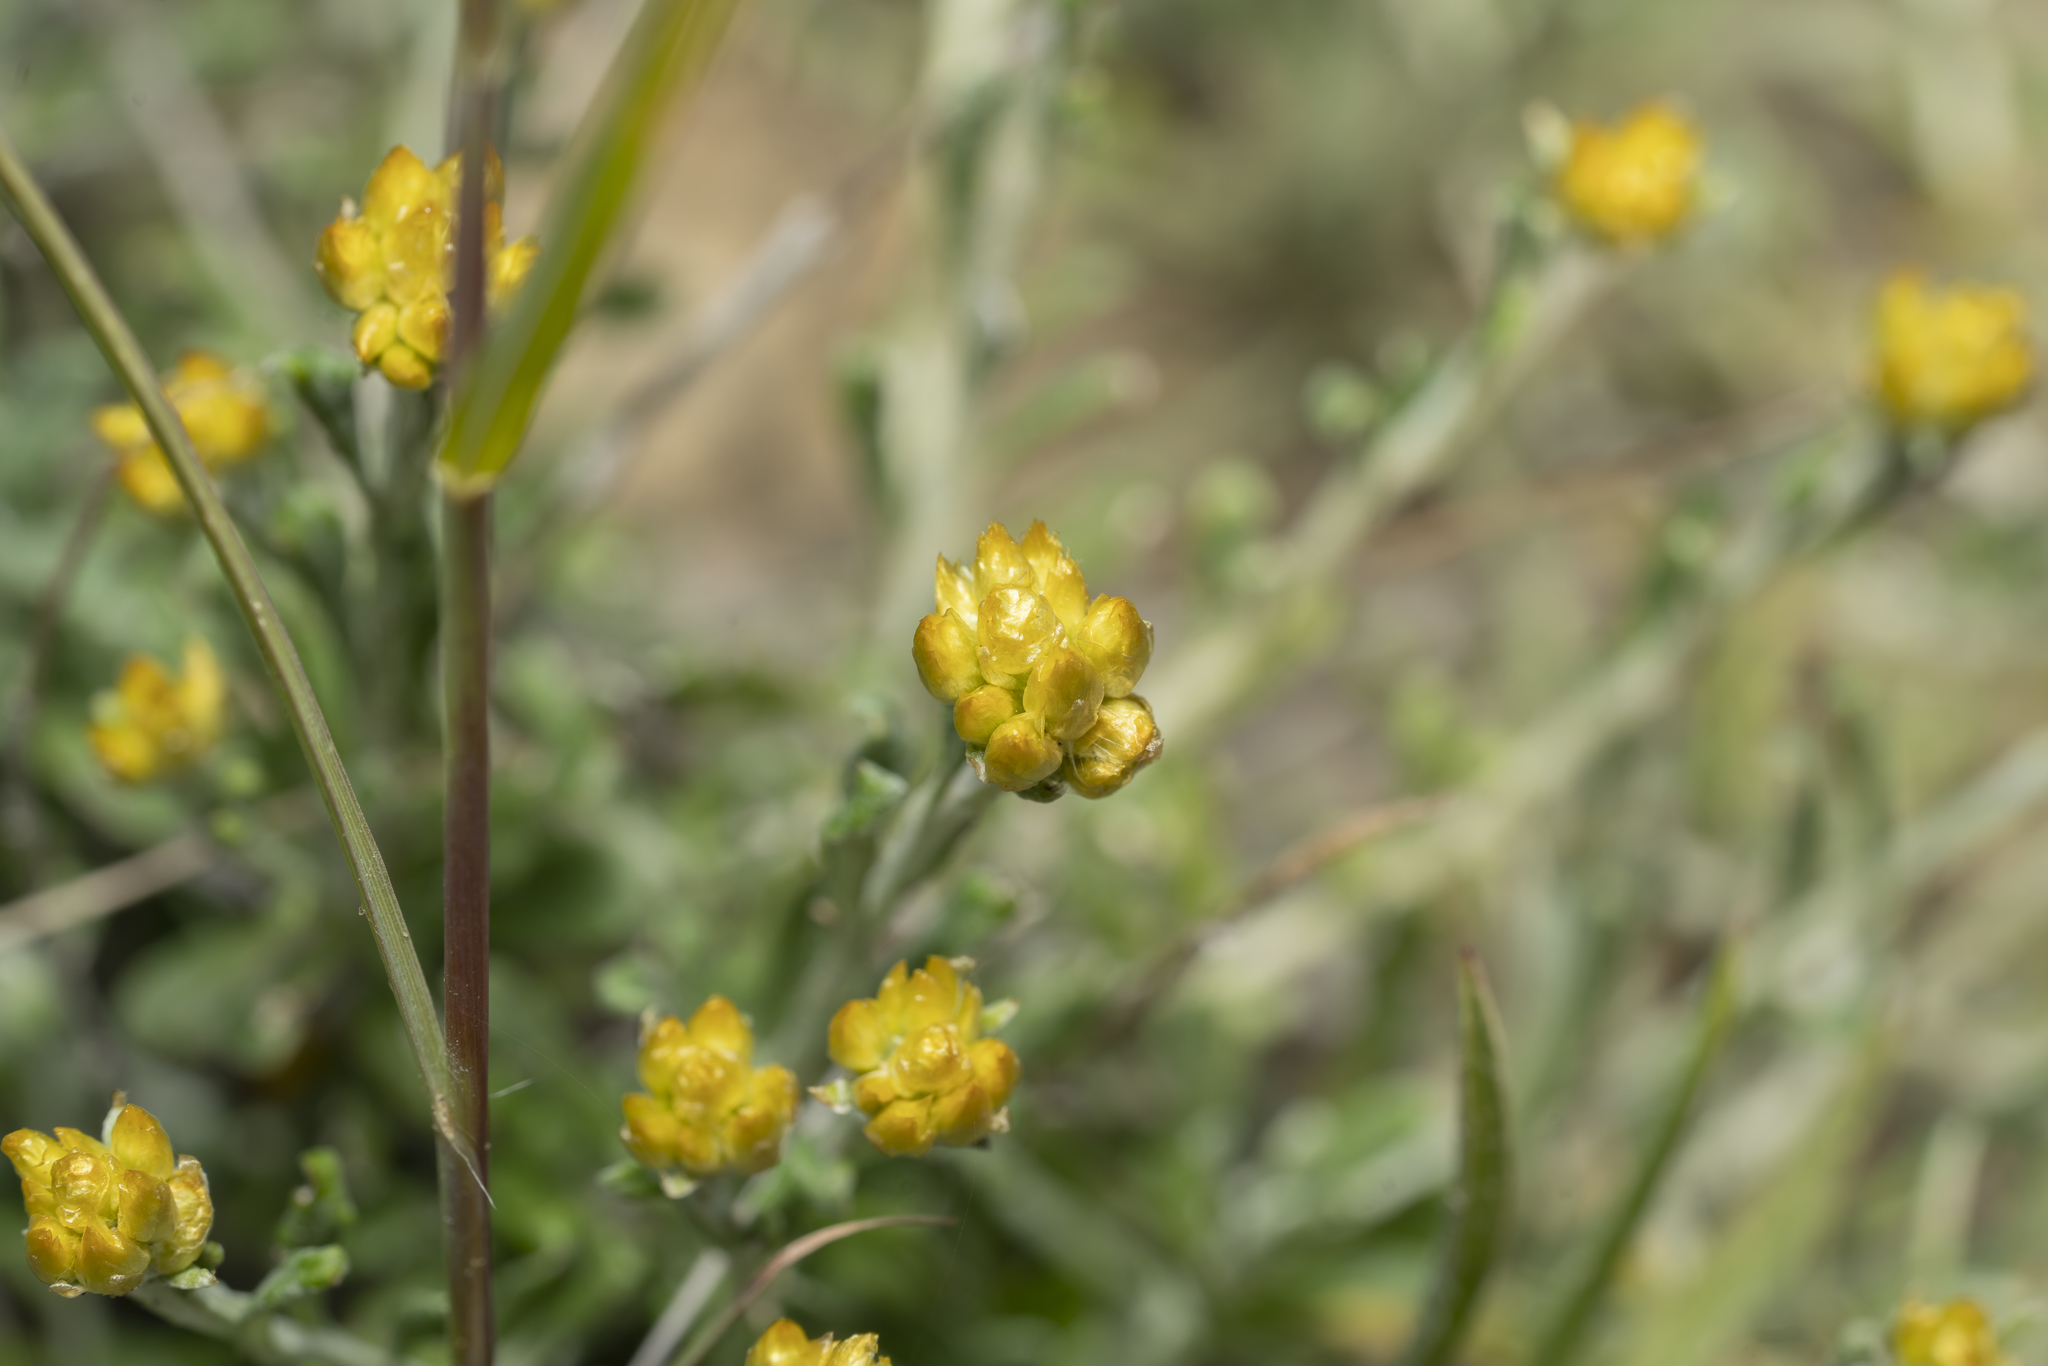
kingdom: Plantae
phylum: Tracheophyta
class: Magnoliopsida
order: Asterales
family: Asteraceae
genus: Helichrysum
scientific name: Helichrysum stoechas
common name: Goldilocks
